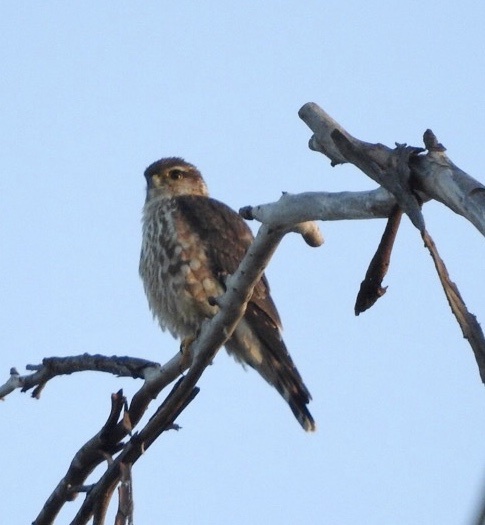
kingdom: Animalia
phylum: Chordata
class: Aves
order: Falconiformes
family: Falconidae
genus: Falco
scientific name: Falco columbarius
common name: Merlin
